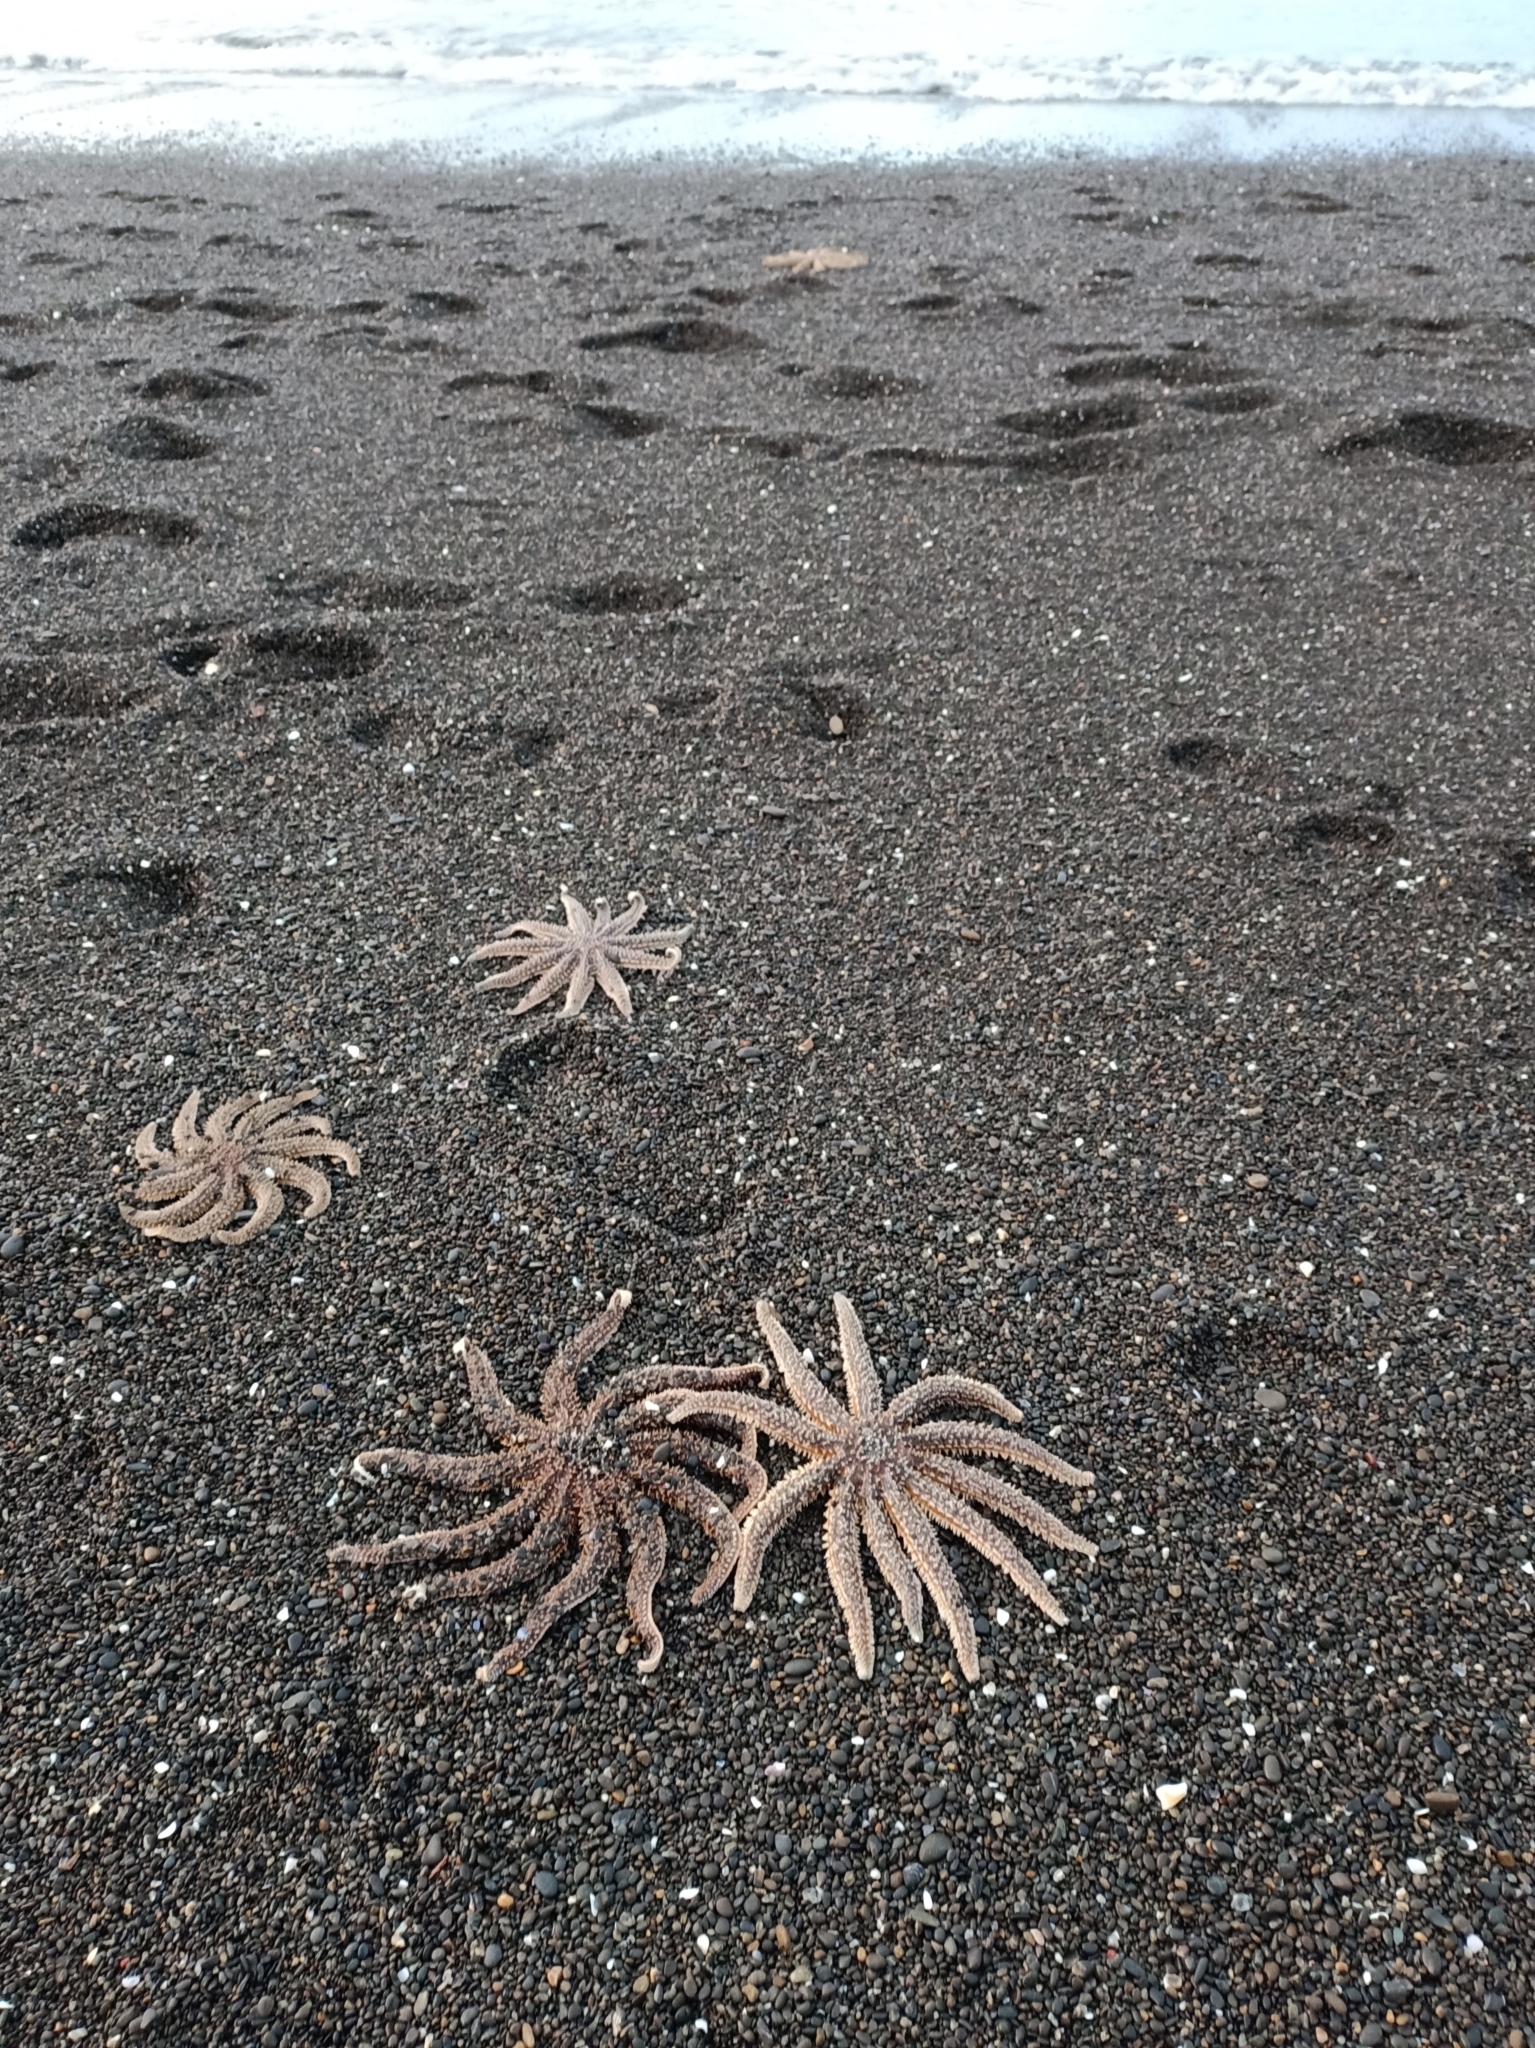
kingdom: Animalia
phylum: Echinodermata
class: Asteroidea
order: Forcipulatida
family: Asteriidae
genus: Coscinasterias
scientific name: Coscinasterias muricata
